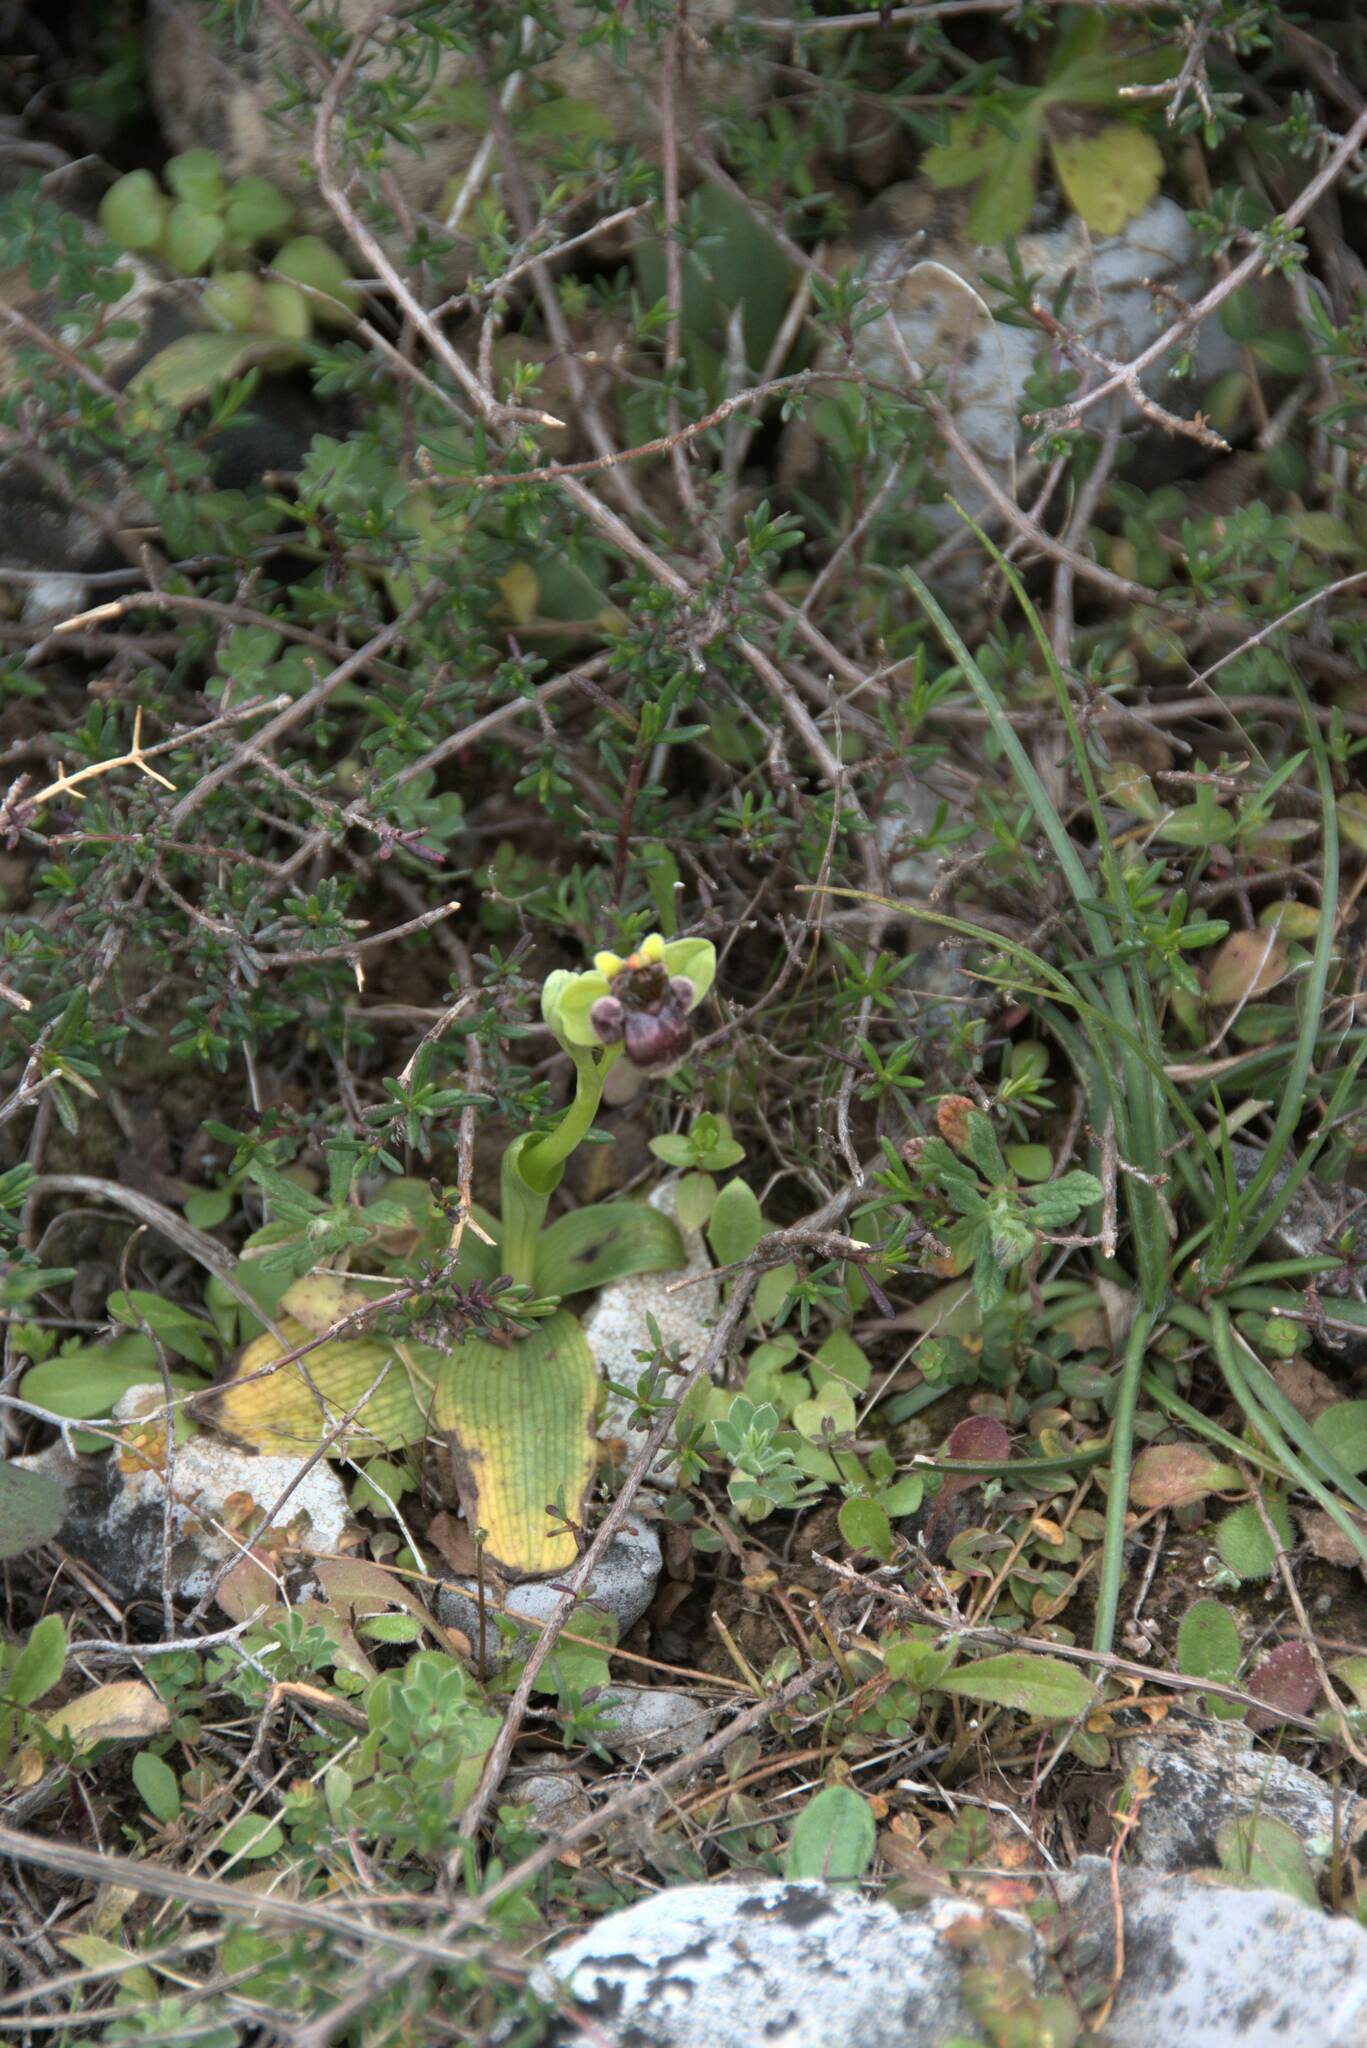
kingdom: Plantae
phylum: Tracheophyta
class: Liliopsida
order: Asparagales
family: Orchidaceae
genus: Ophrys
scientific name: Ophrys bombyliflora
